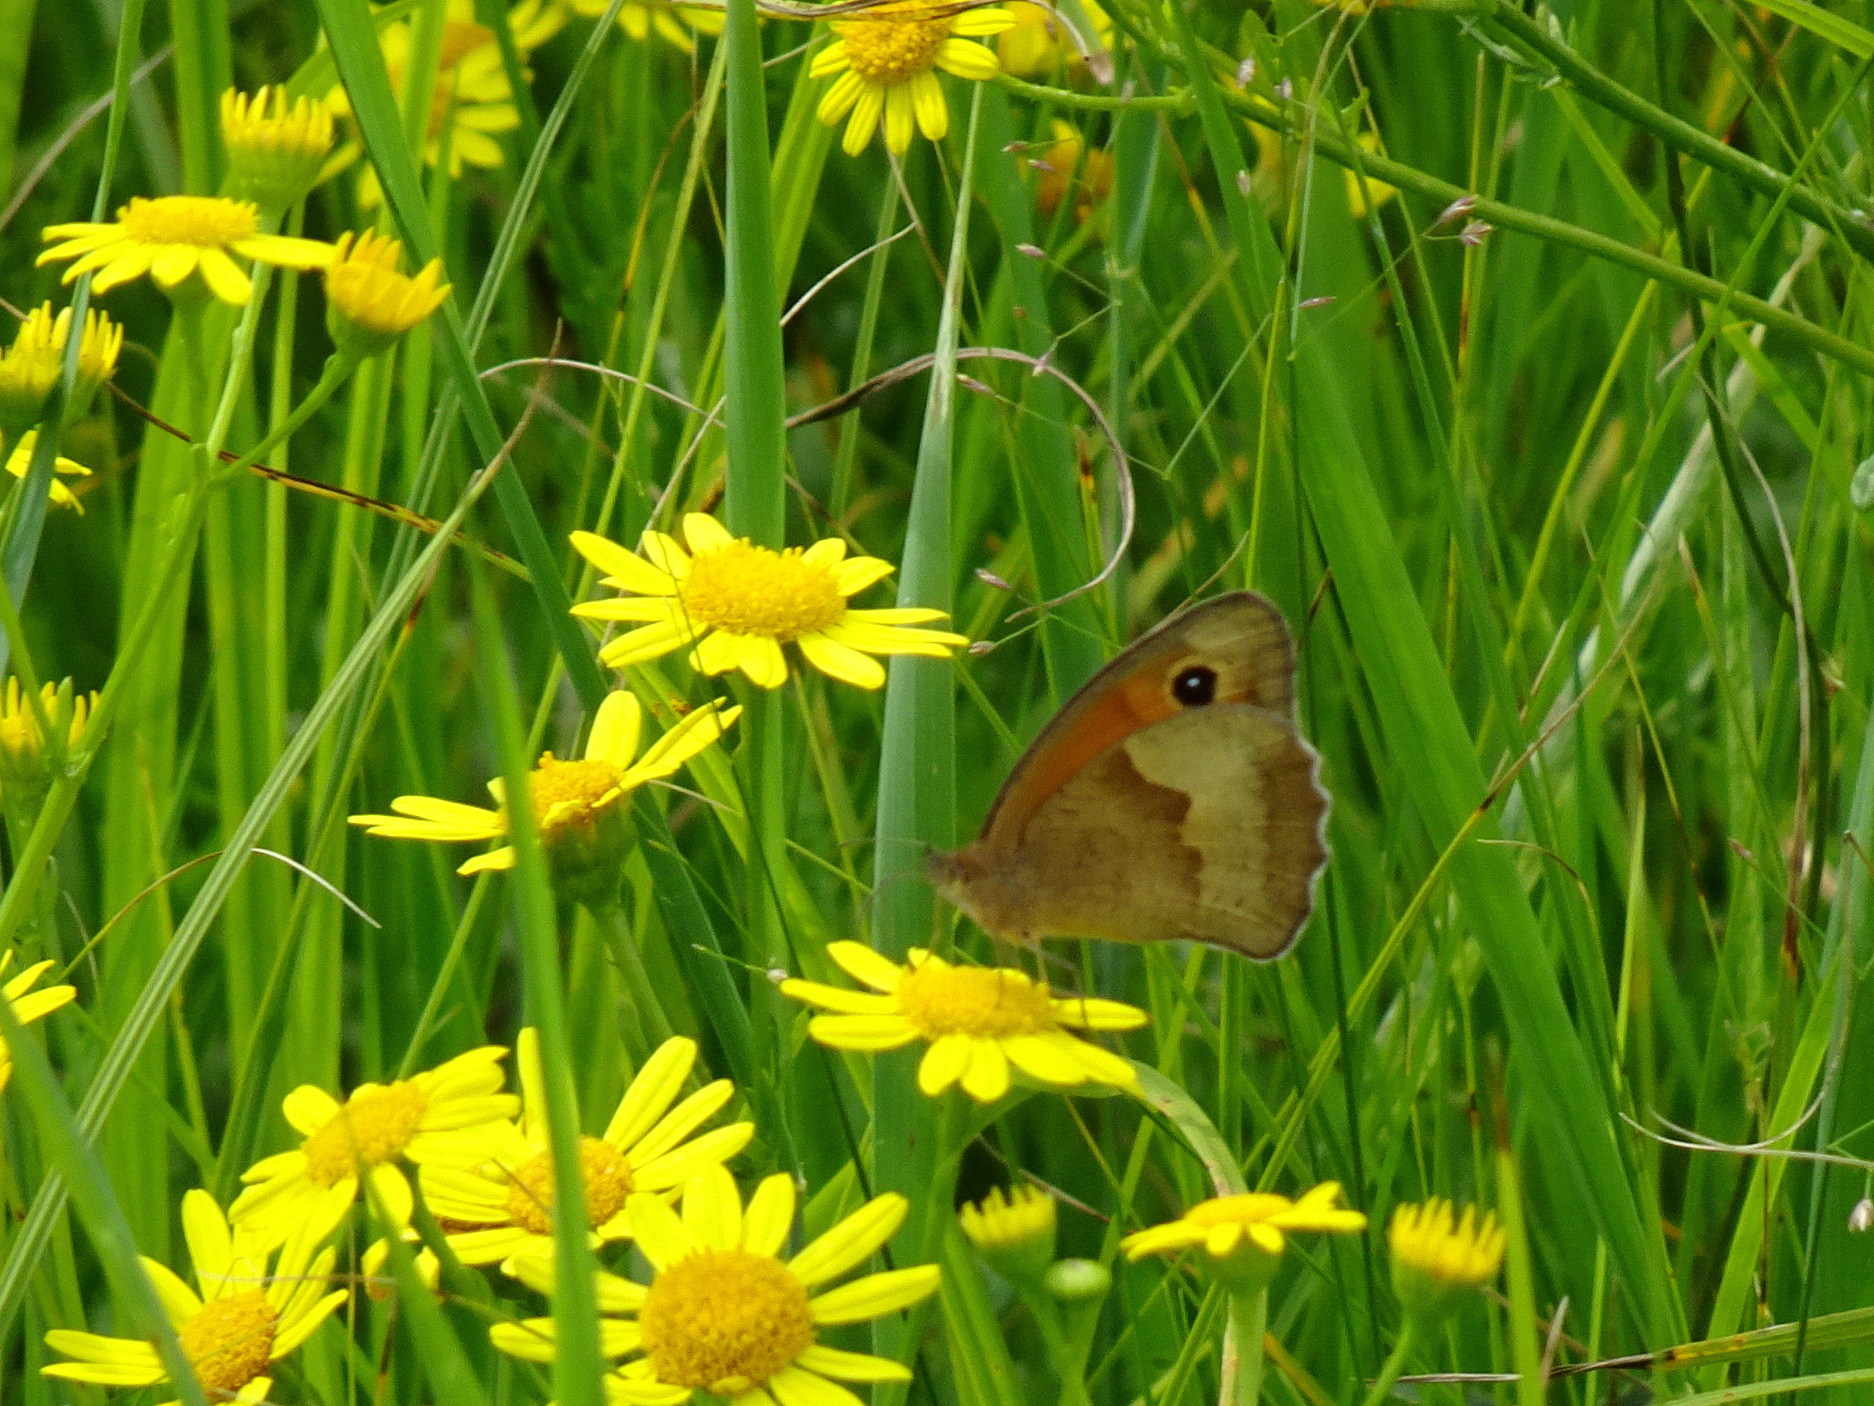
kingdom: Animalia
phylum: Arthropoda
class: Insecta
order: Lepidoptera
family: Nymphalidae
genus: Maniola
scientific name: Maniola jurtina
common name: Meadow brown
